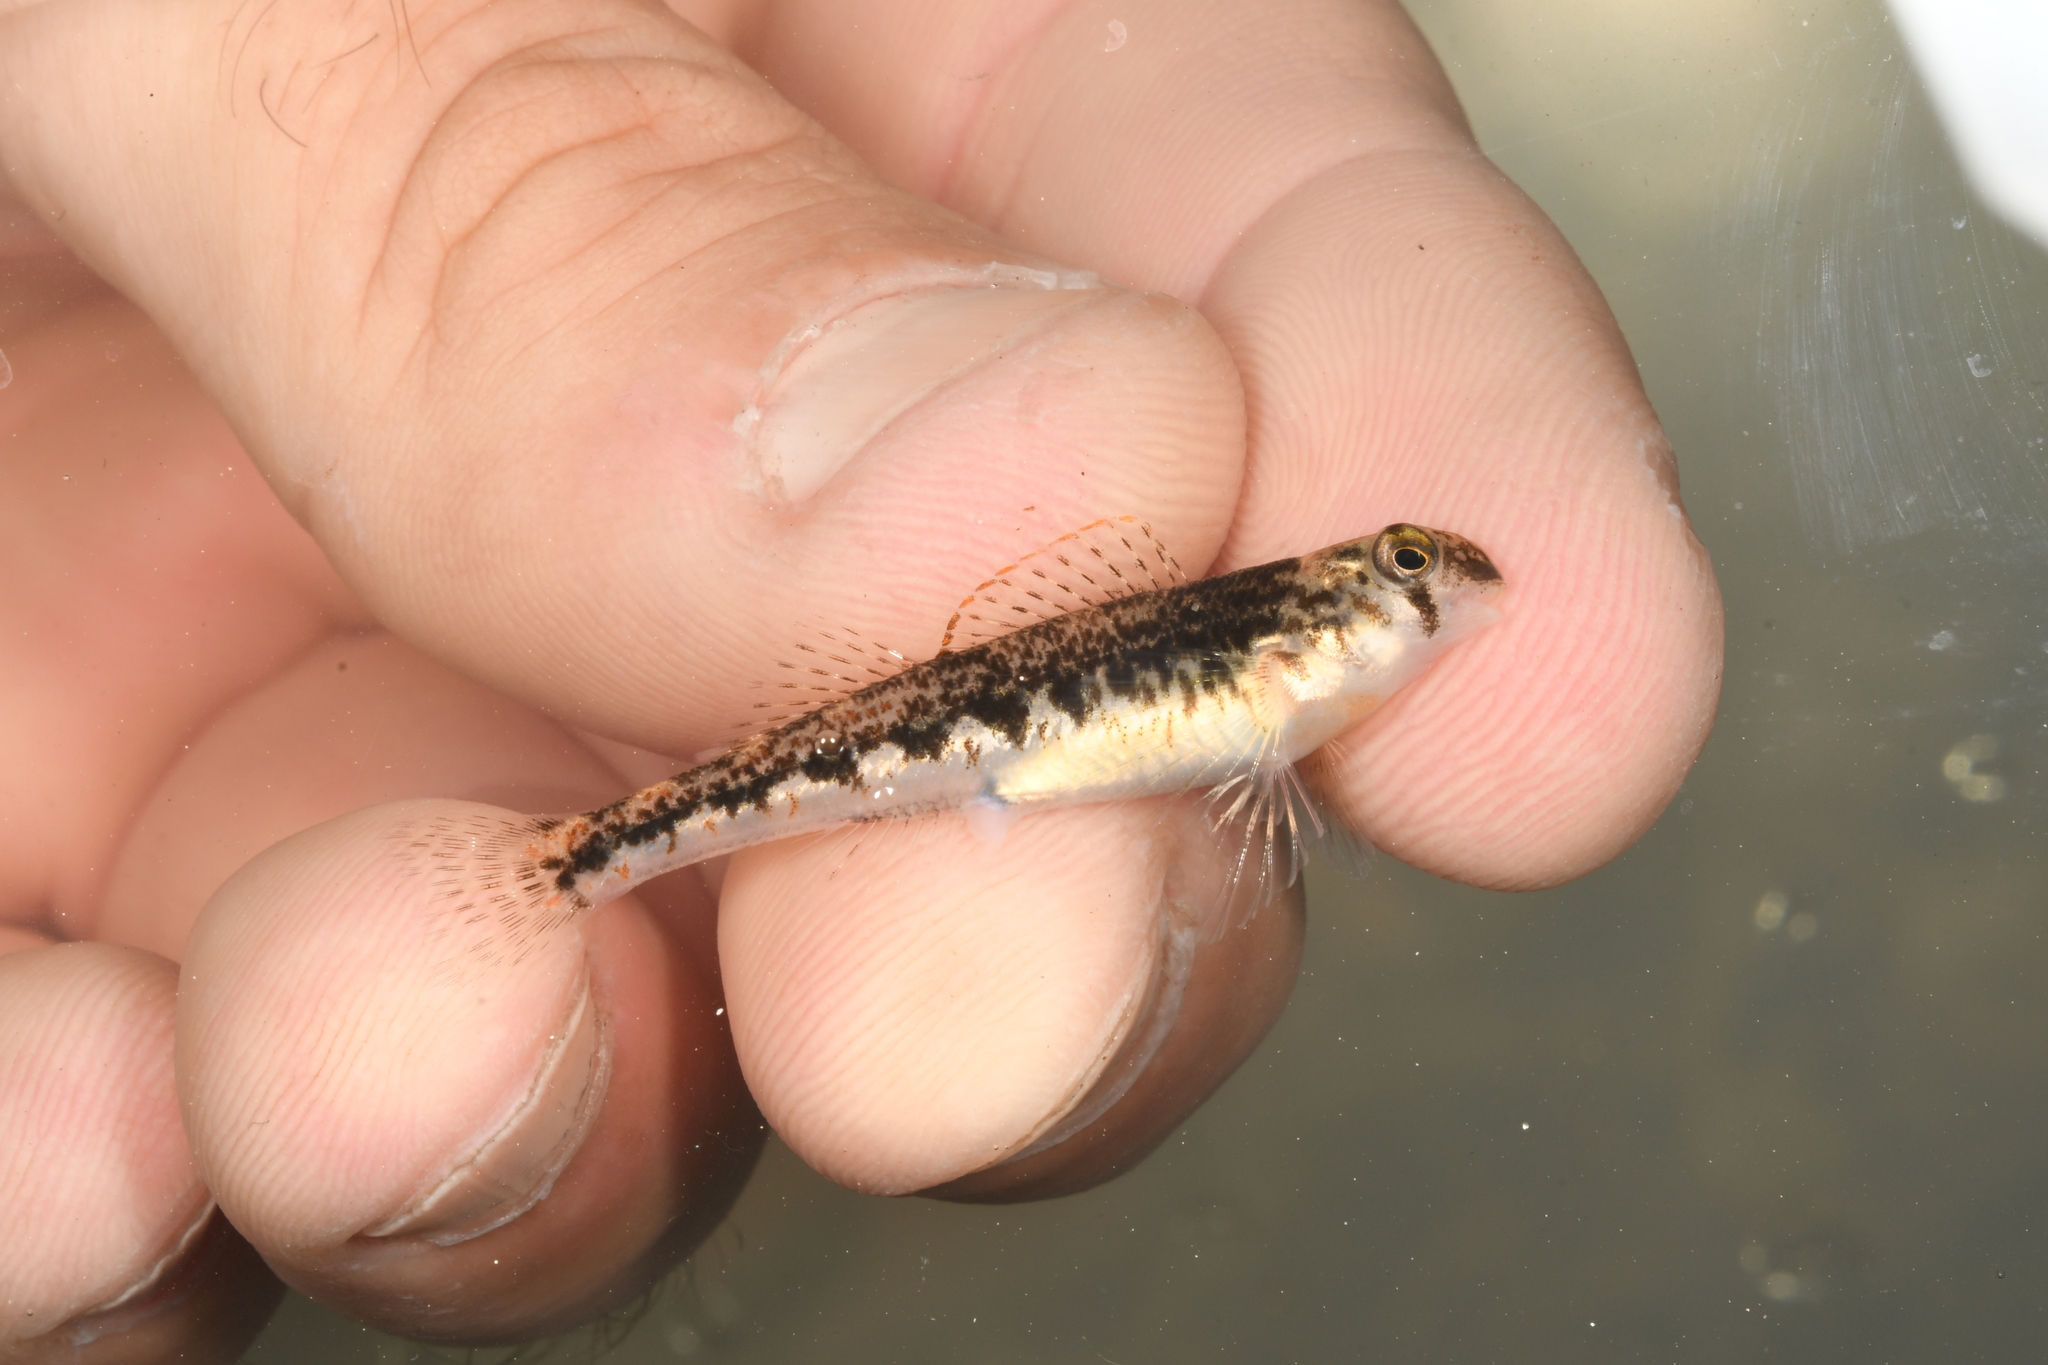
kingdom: Animalia
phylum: Chordata
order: Perciformes
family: Percidae
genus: Etheostoma
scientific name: Etheostoma simoterum
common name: Snubnose darter
